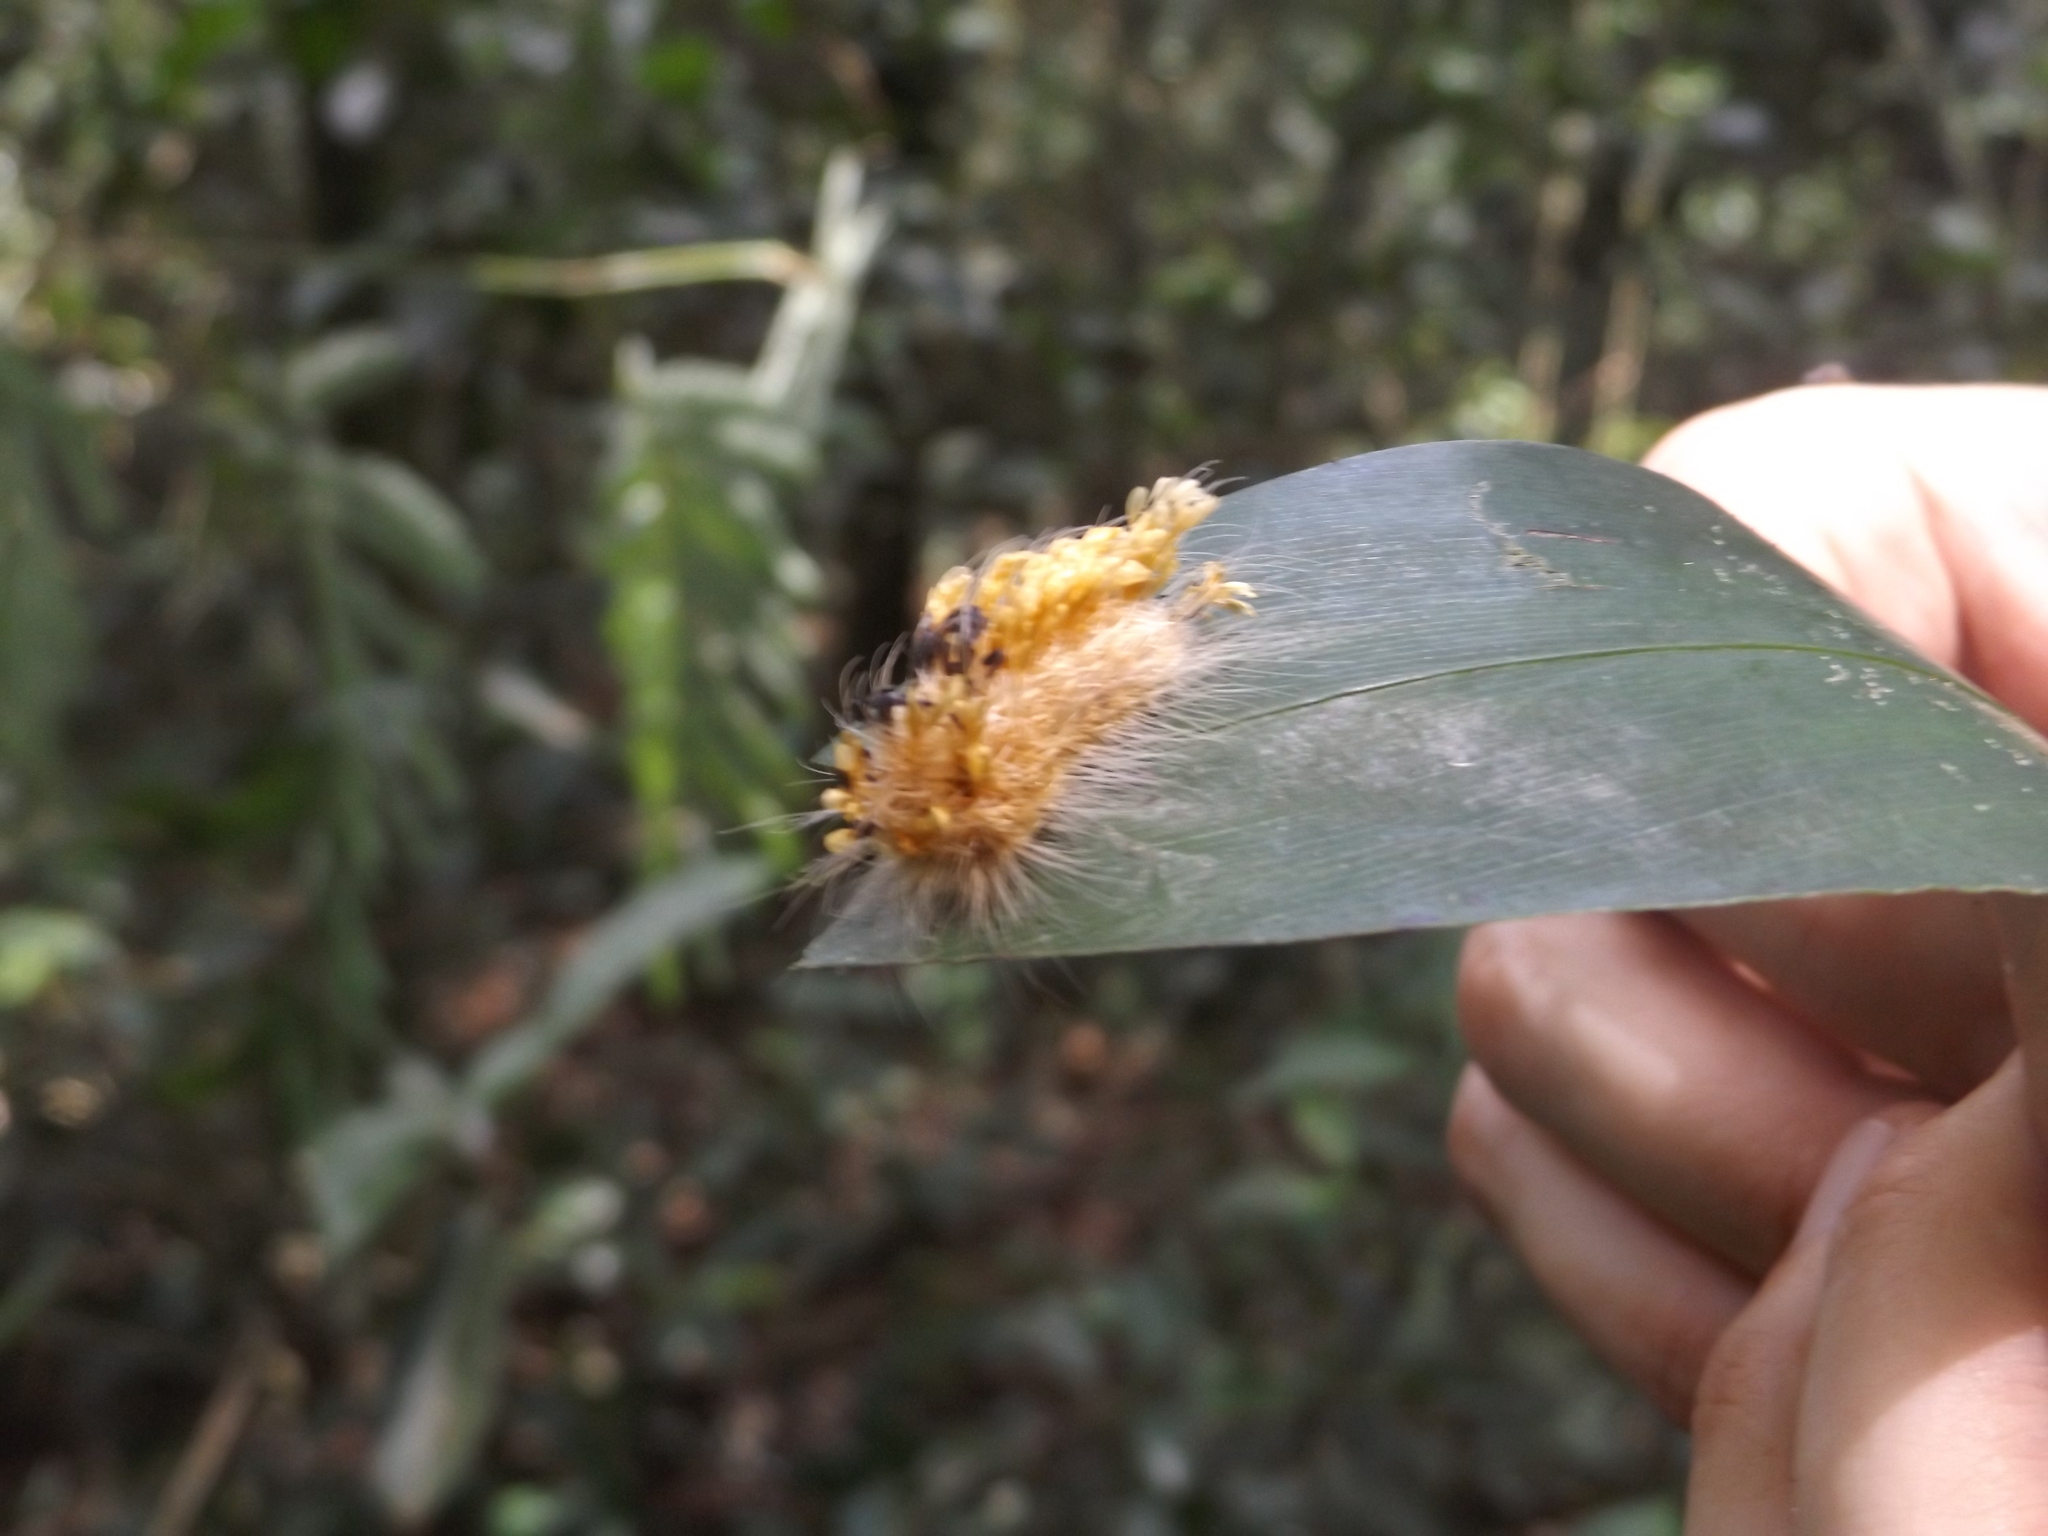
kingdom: Animalia
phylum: Arthropoda
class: Insecta
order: Lepidoptera
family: Bombycidae
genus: Prothysana
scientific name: Prothysana terminalis
